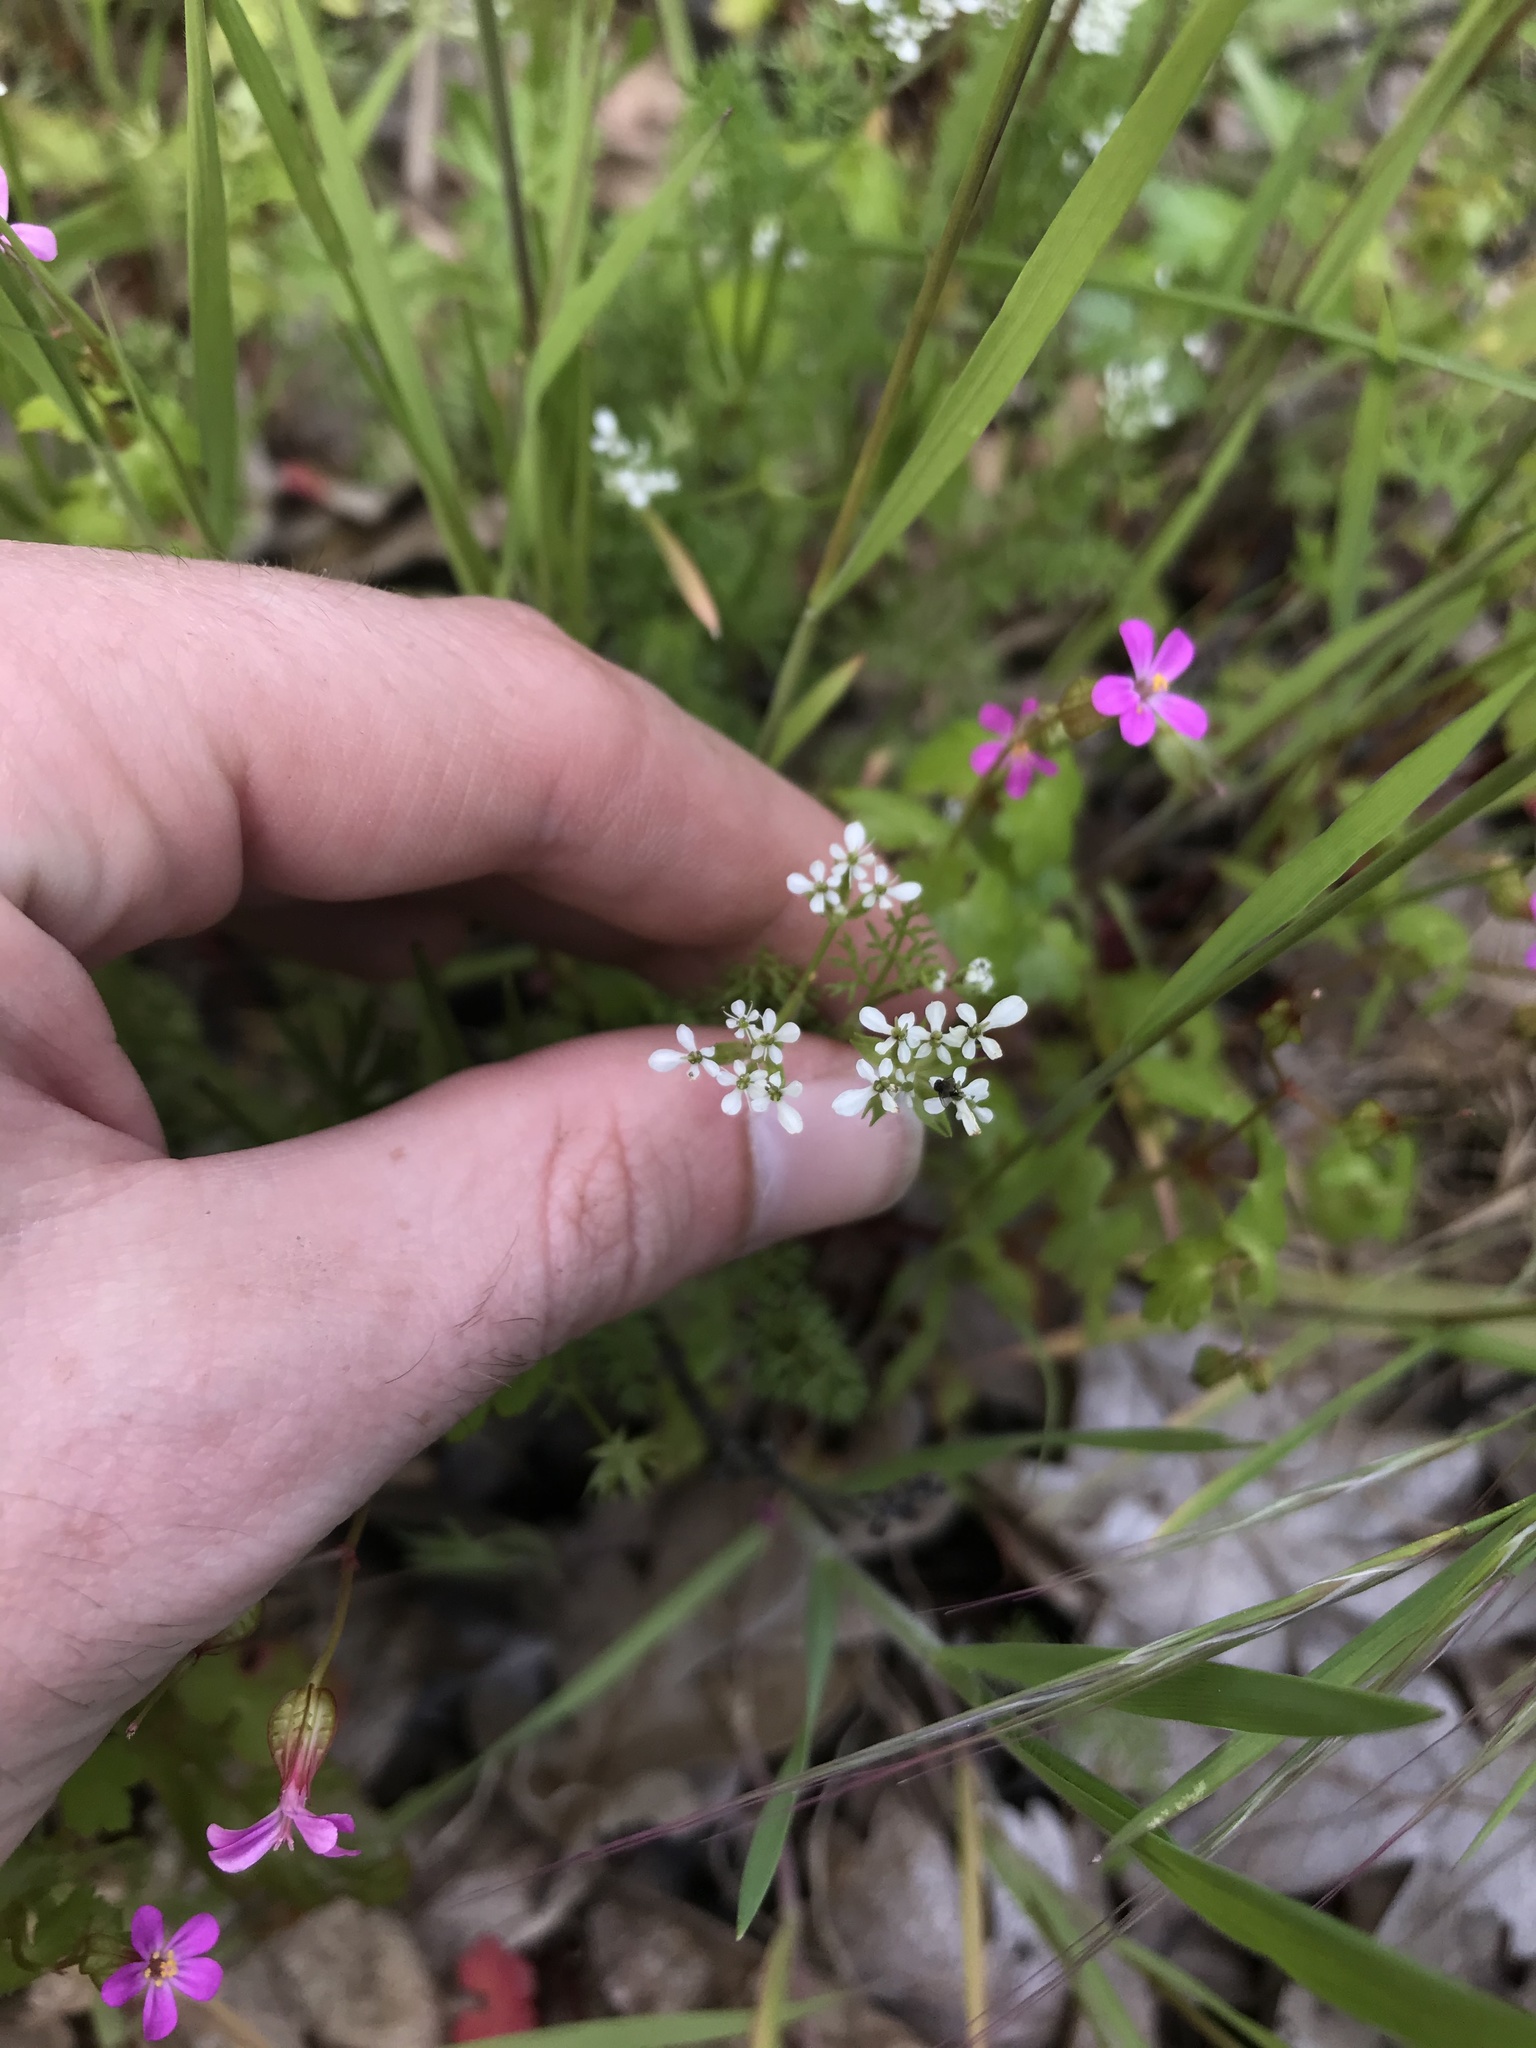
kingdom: Plantae
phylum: Tracheophyta
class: Magnoliopsida
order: Apiales
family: Apiaceae
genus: Scandix
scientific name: Scandix pecten-veneris
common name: Shepherd's-needle
